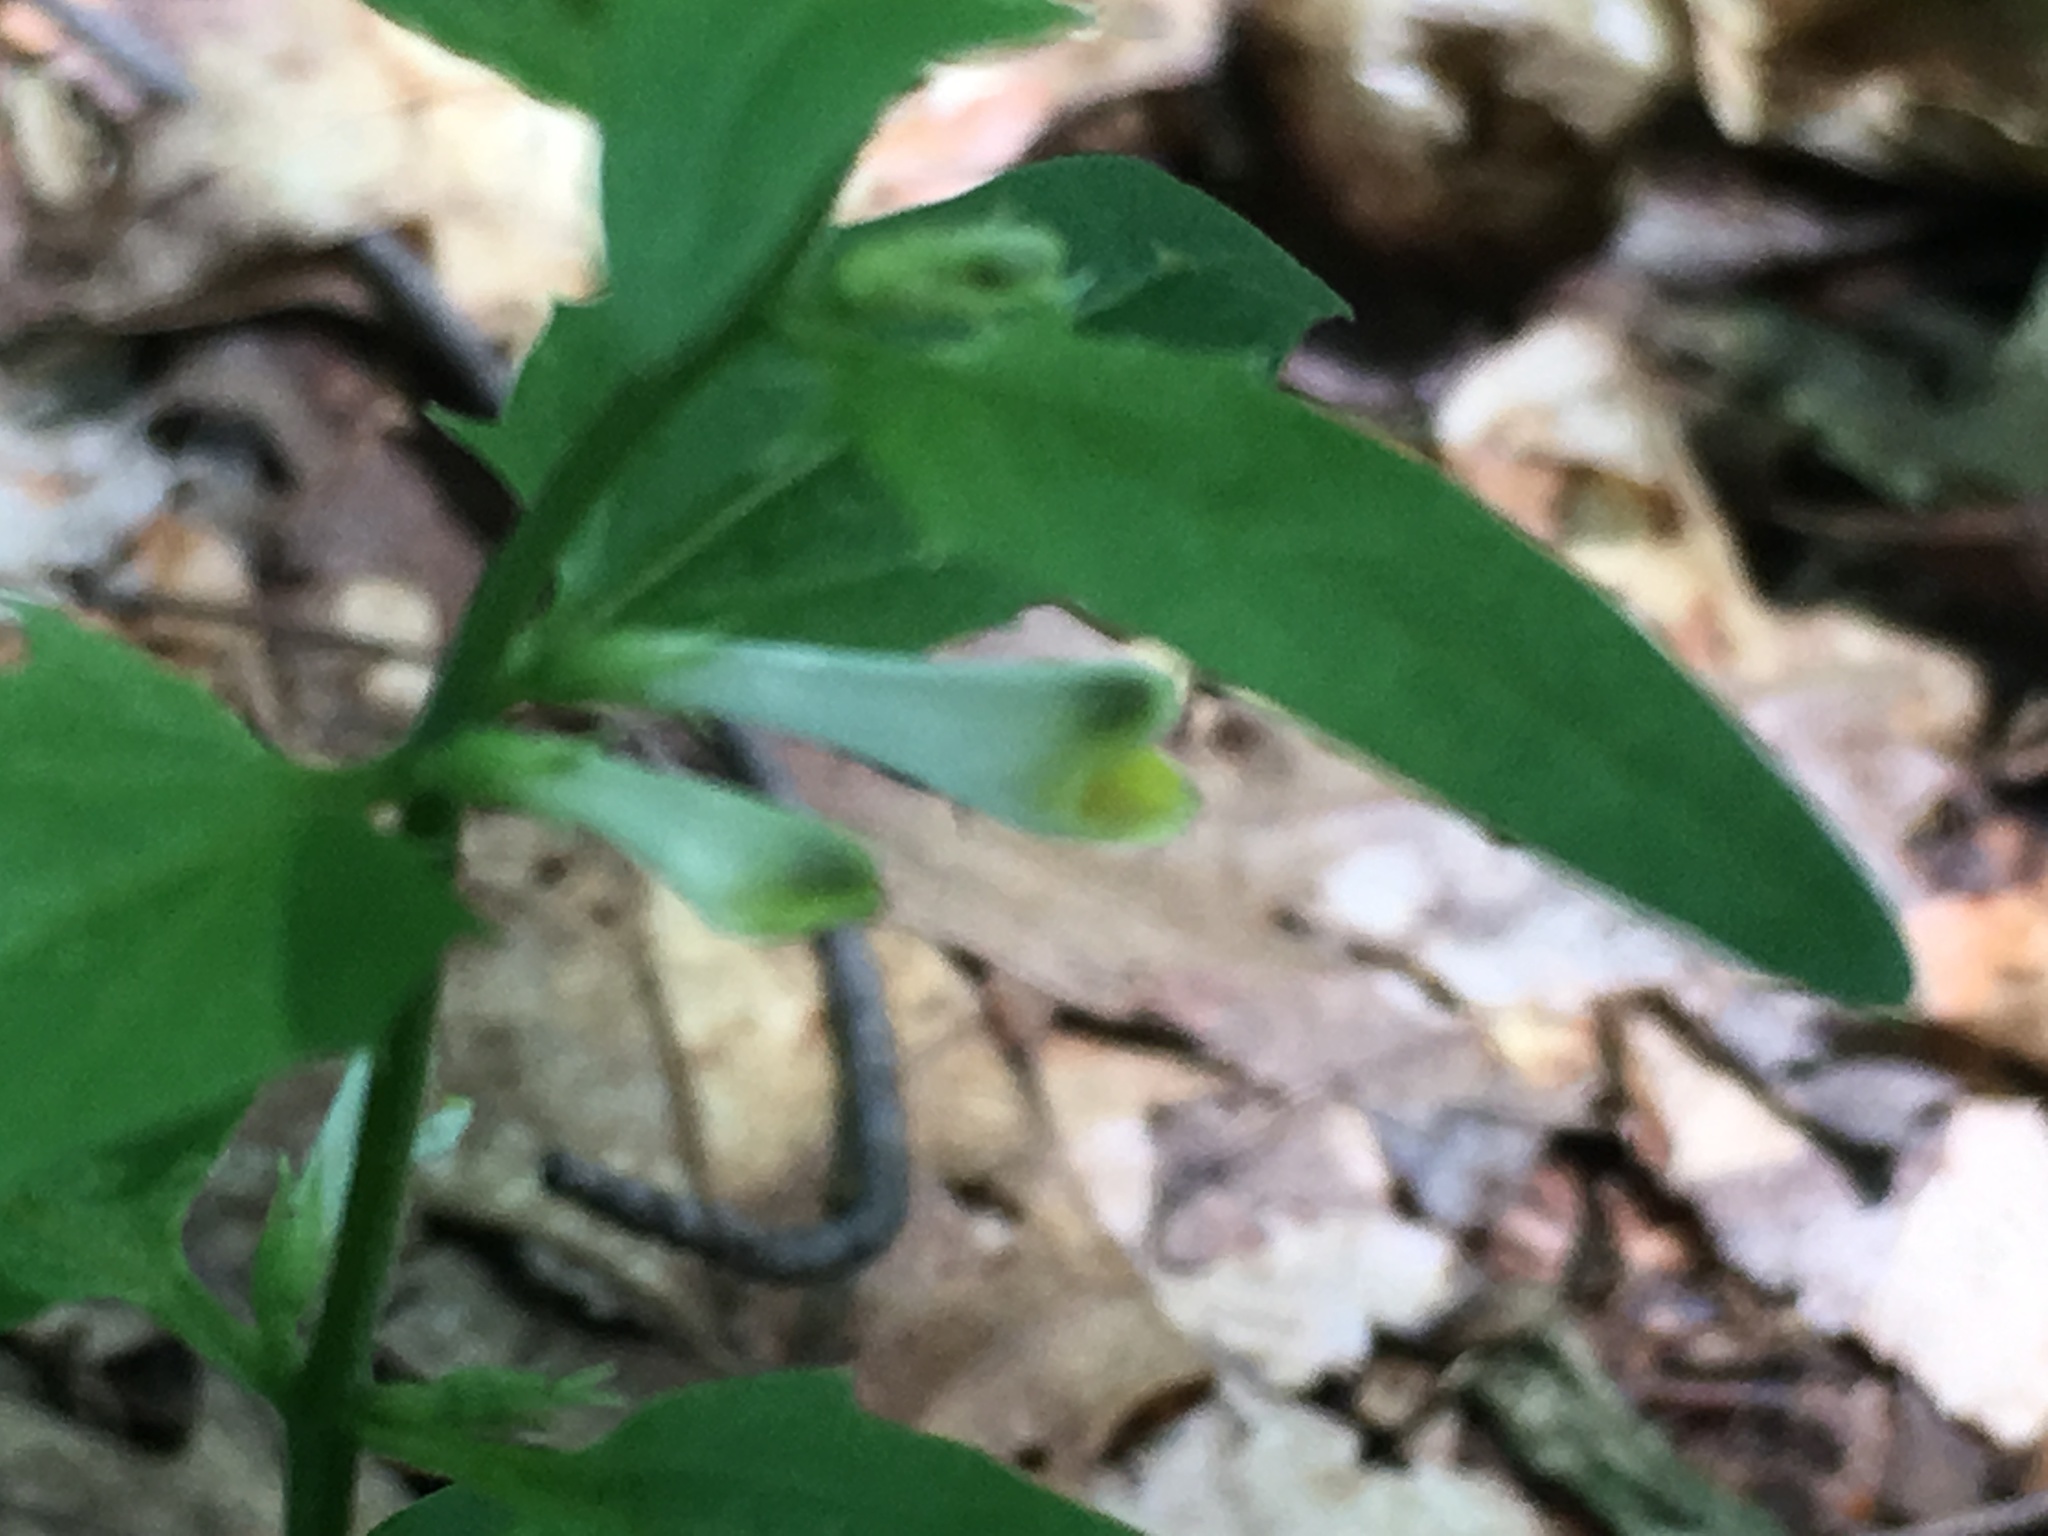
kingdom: Plantae
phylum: Tracheophyta
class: Magnoliopsida
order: Lamiales
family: Orobanchaceae
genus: Melampyrum
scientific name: Melampyrum lineare
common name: American cow-wheat
